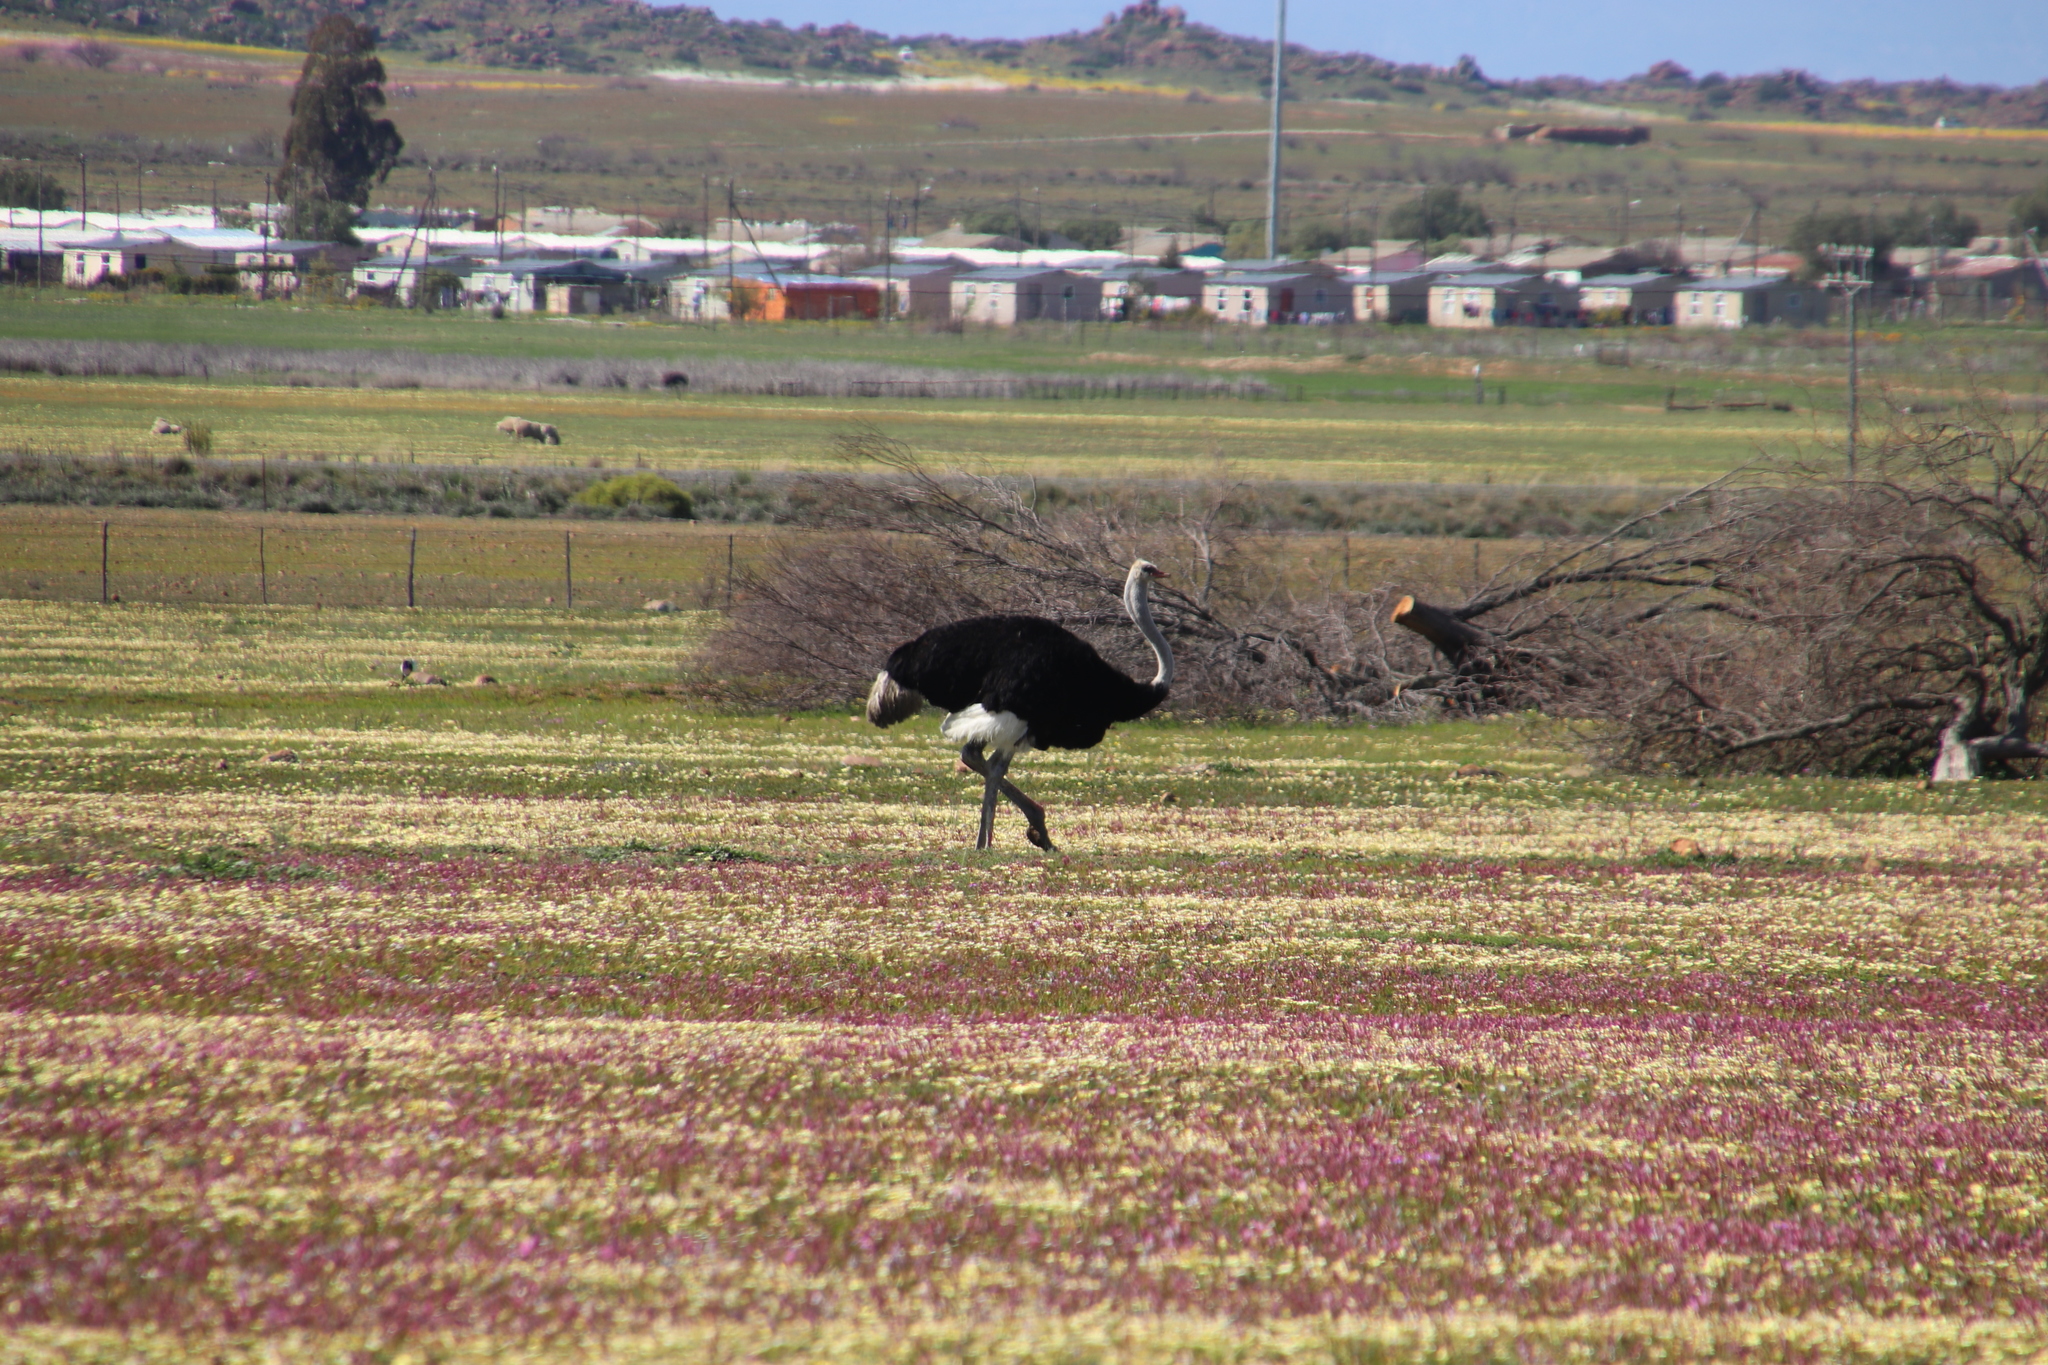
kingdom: Animalia
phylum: Chordata
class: Aves
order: Struthioniformes
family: Struthionidae
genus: Struthio
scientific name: Struthio camelus
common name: Common ostrich
